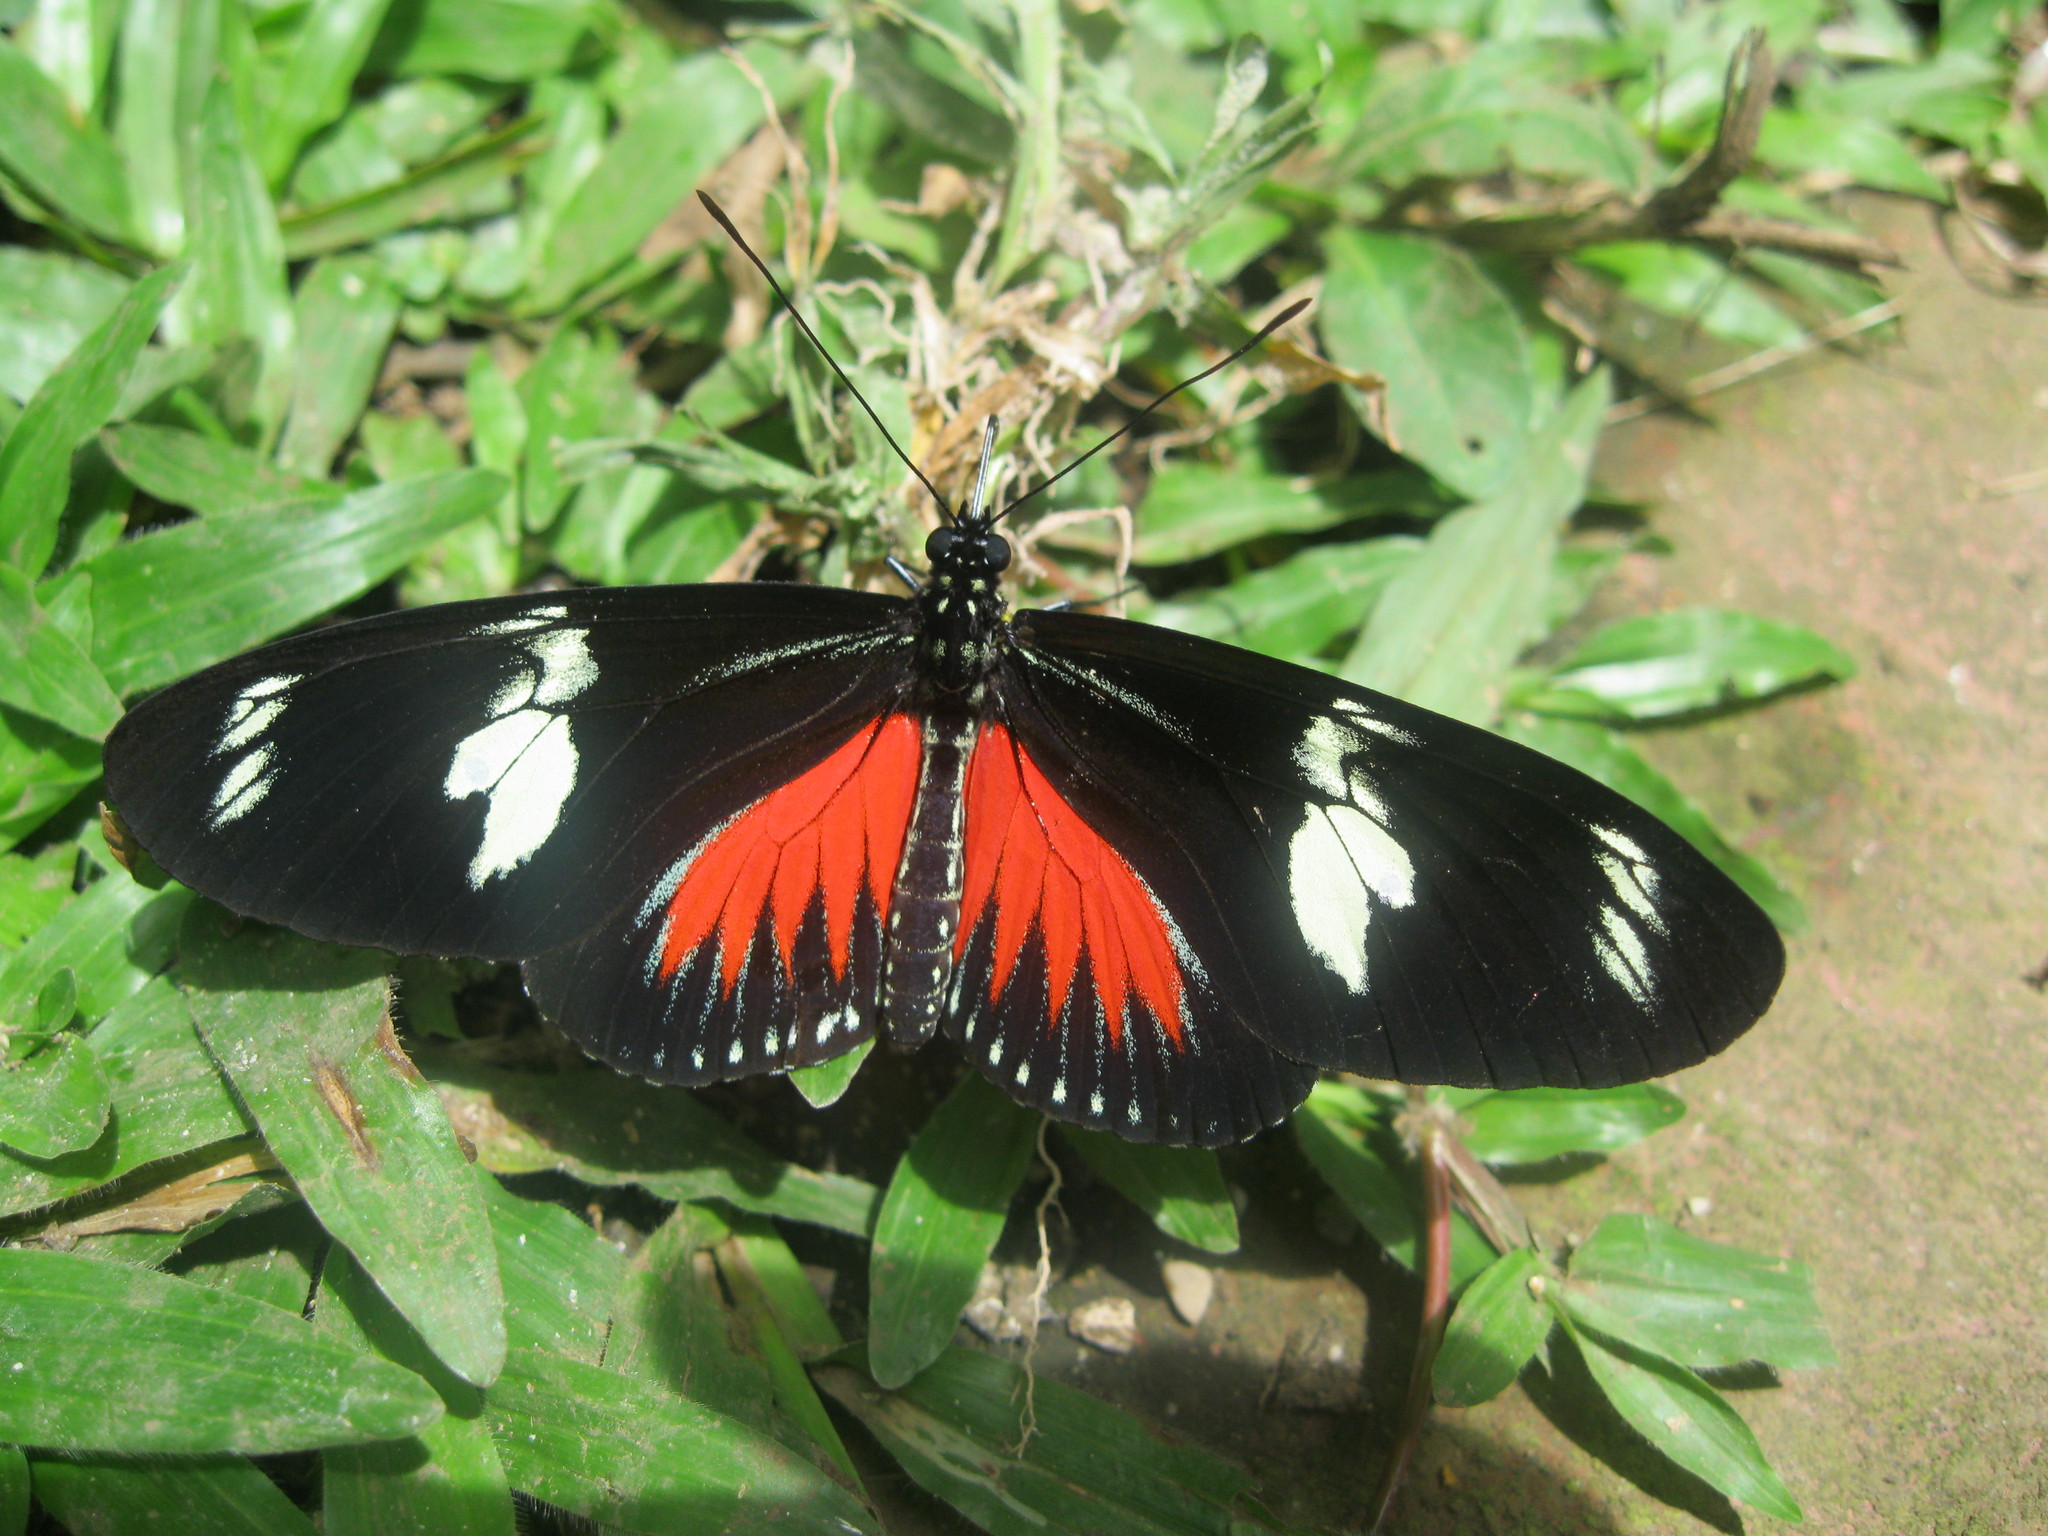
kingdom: Animalia
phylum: Arthropoda
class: Insecta
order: Lepidoptera
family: Nymphalidae
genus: Heliconius
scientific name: Heliconius doris
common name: Doris longwing
